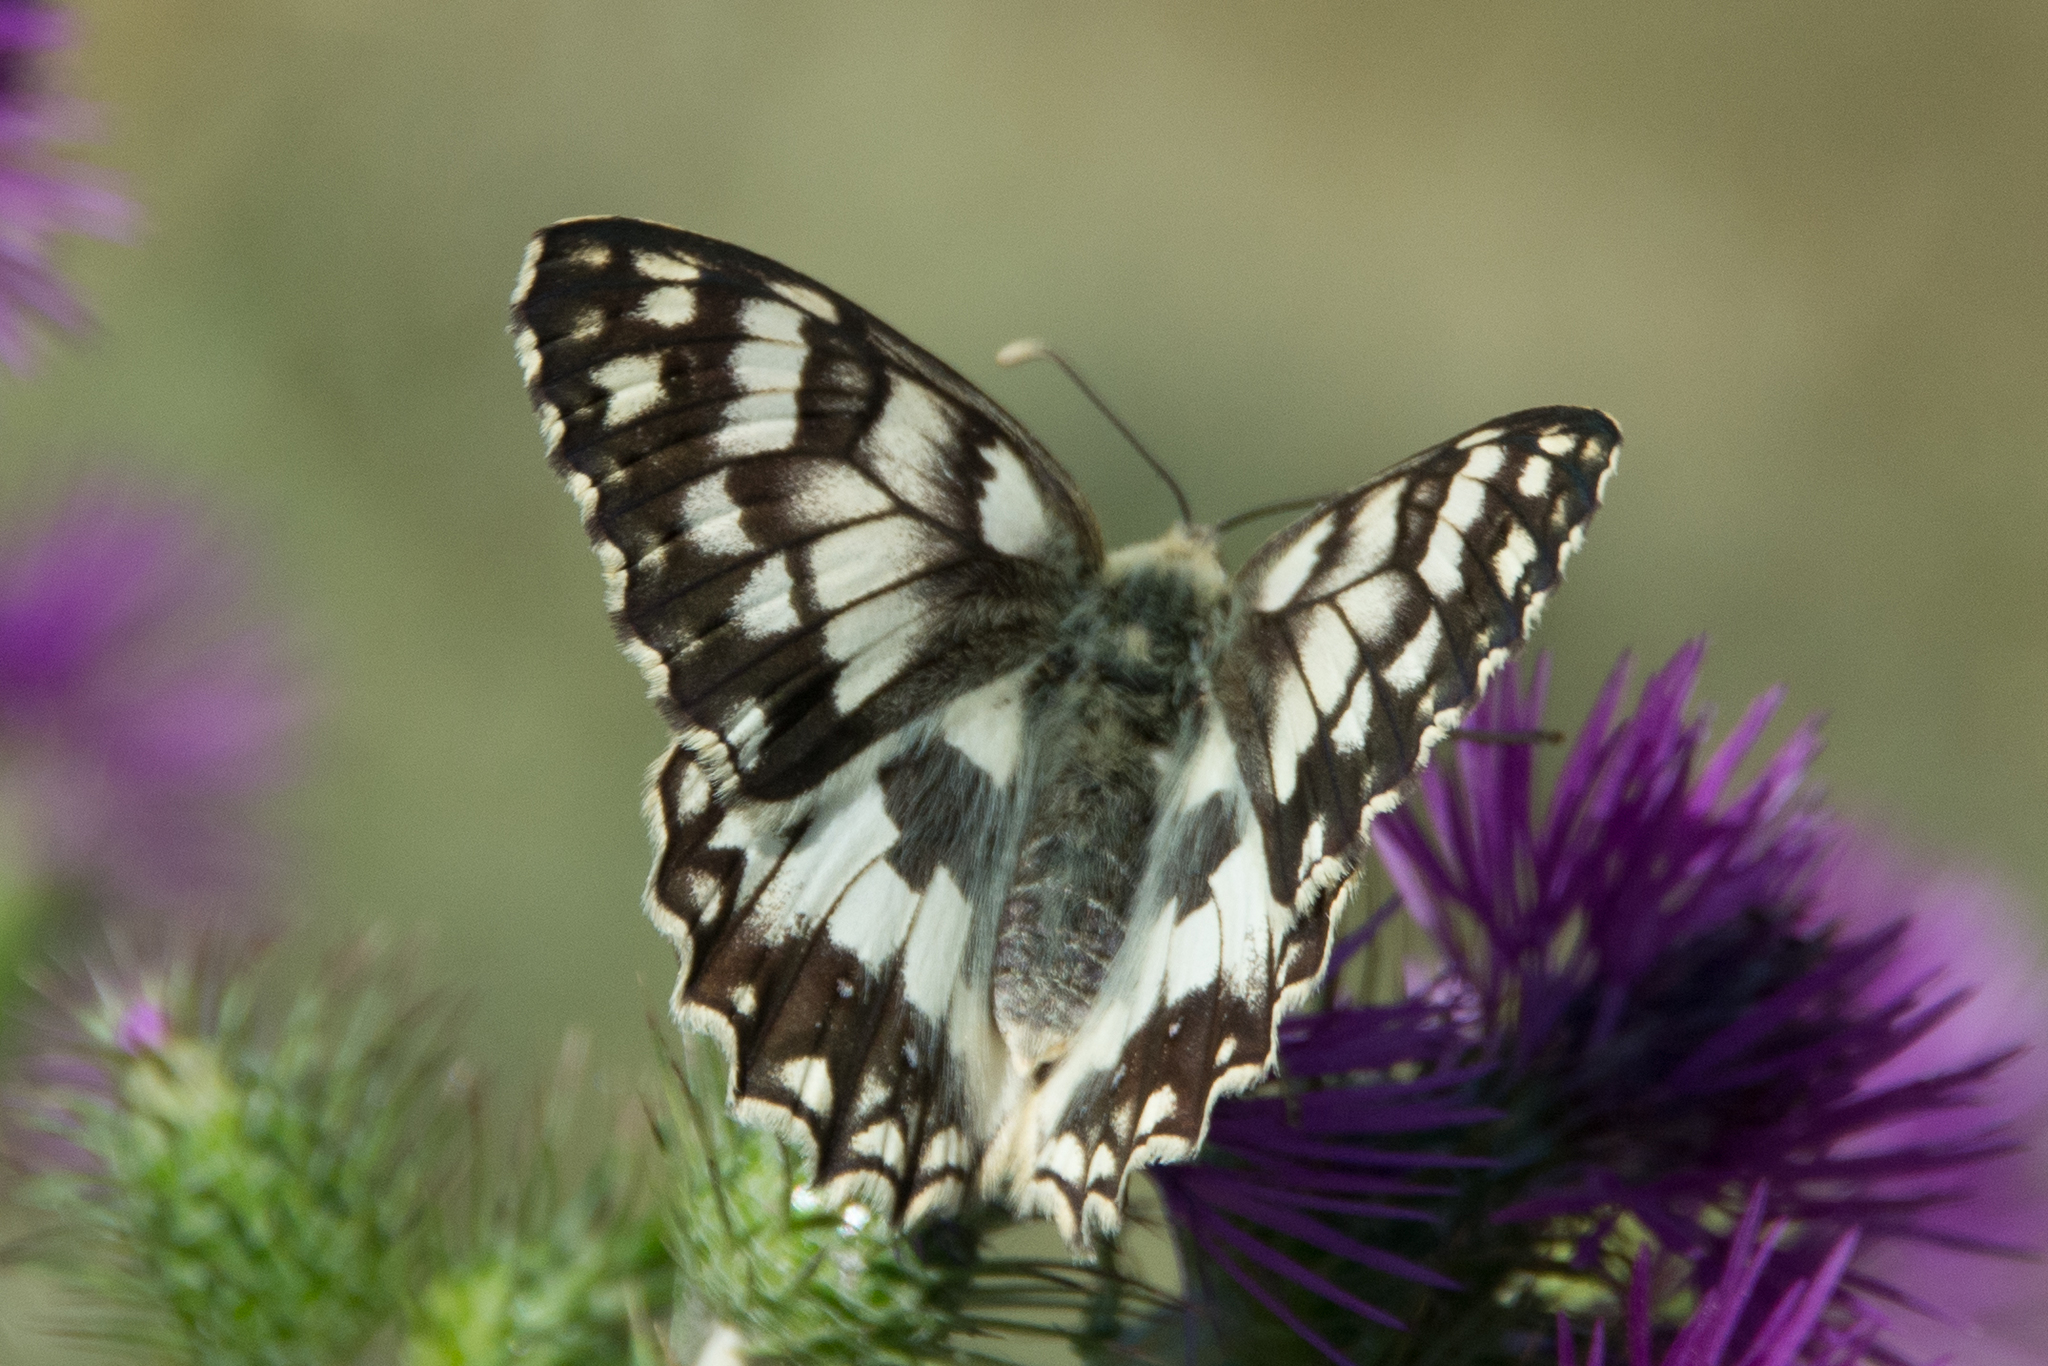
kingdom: Animalia
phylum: Arthropoda
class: Insecta
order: Lepidoptera
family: Nymphalidae
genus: Melanargia
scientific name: Melanargia japygia
